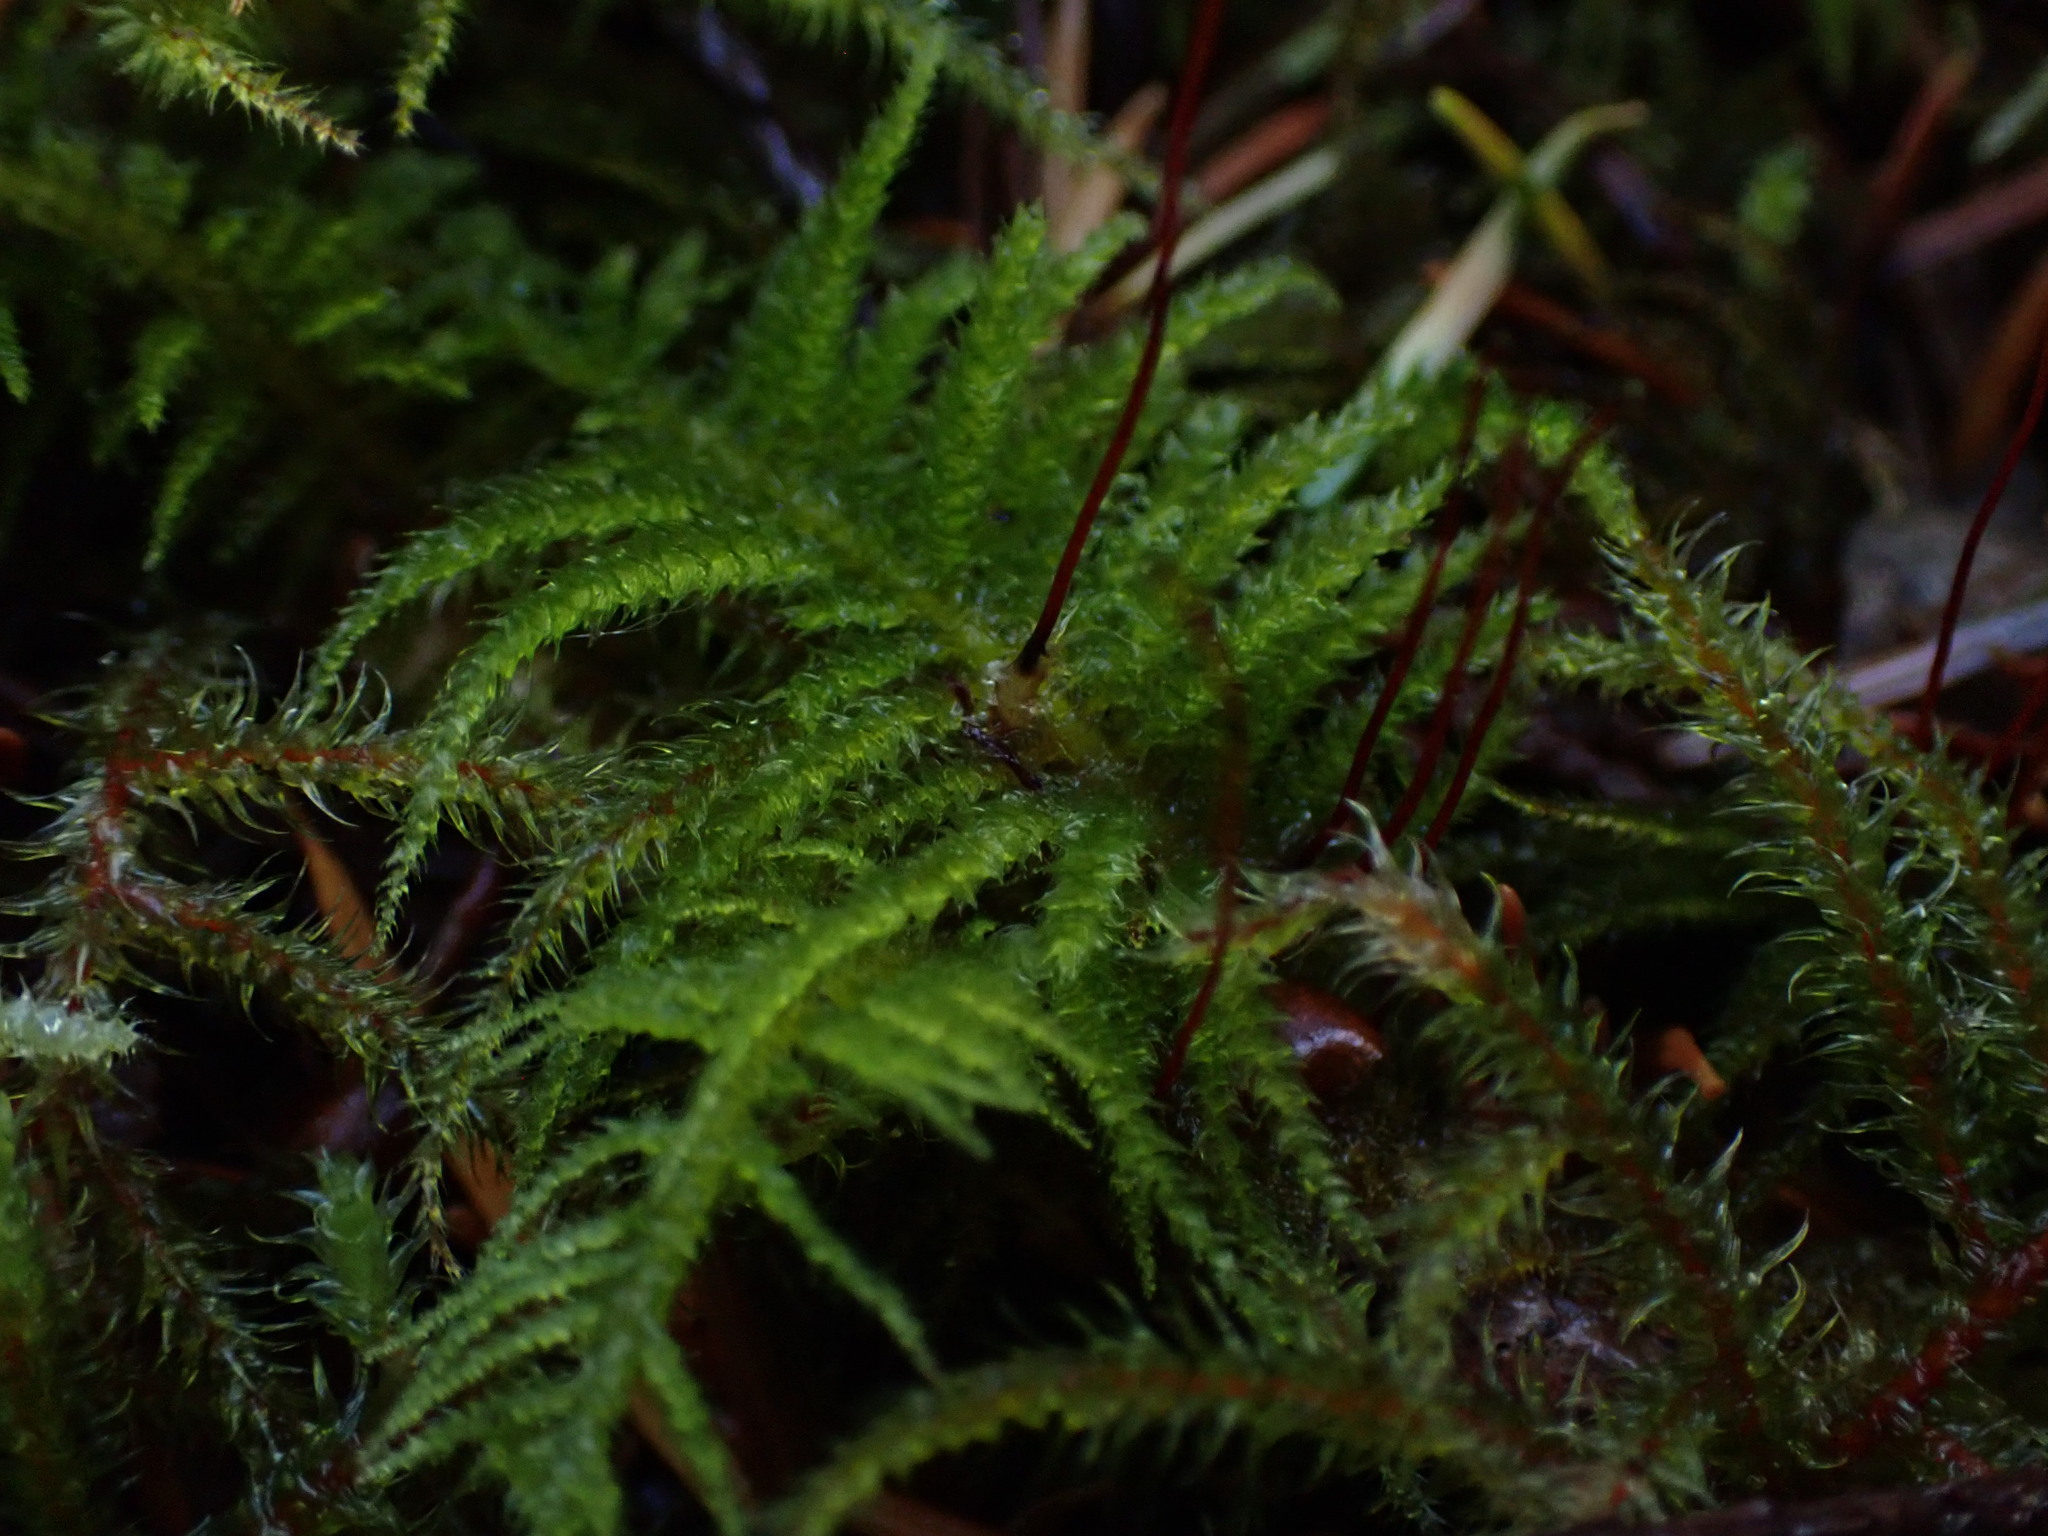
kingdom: Plantae
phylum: Bryophyta
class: Bryopsida
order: Hypnales
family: Brachytheciaceae
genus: Kindbergia
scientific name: Kindbergia oregana
